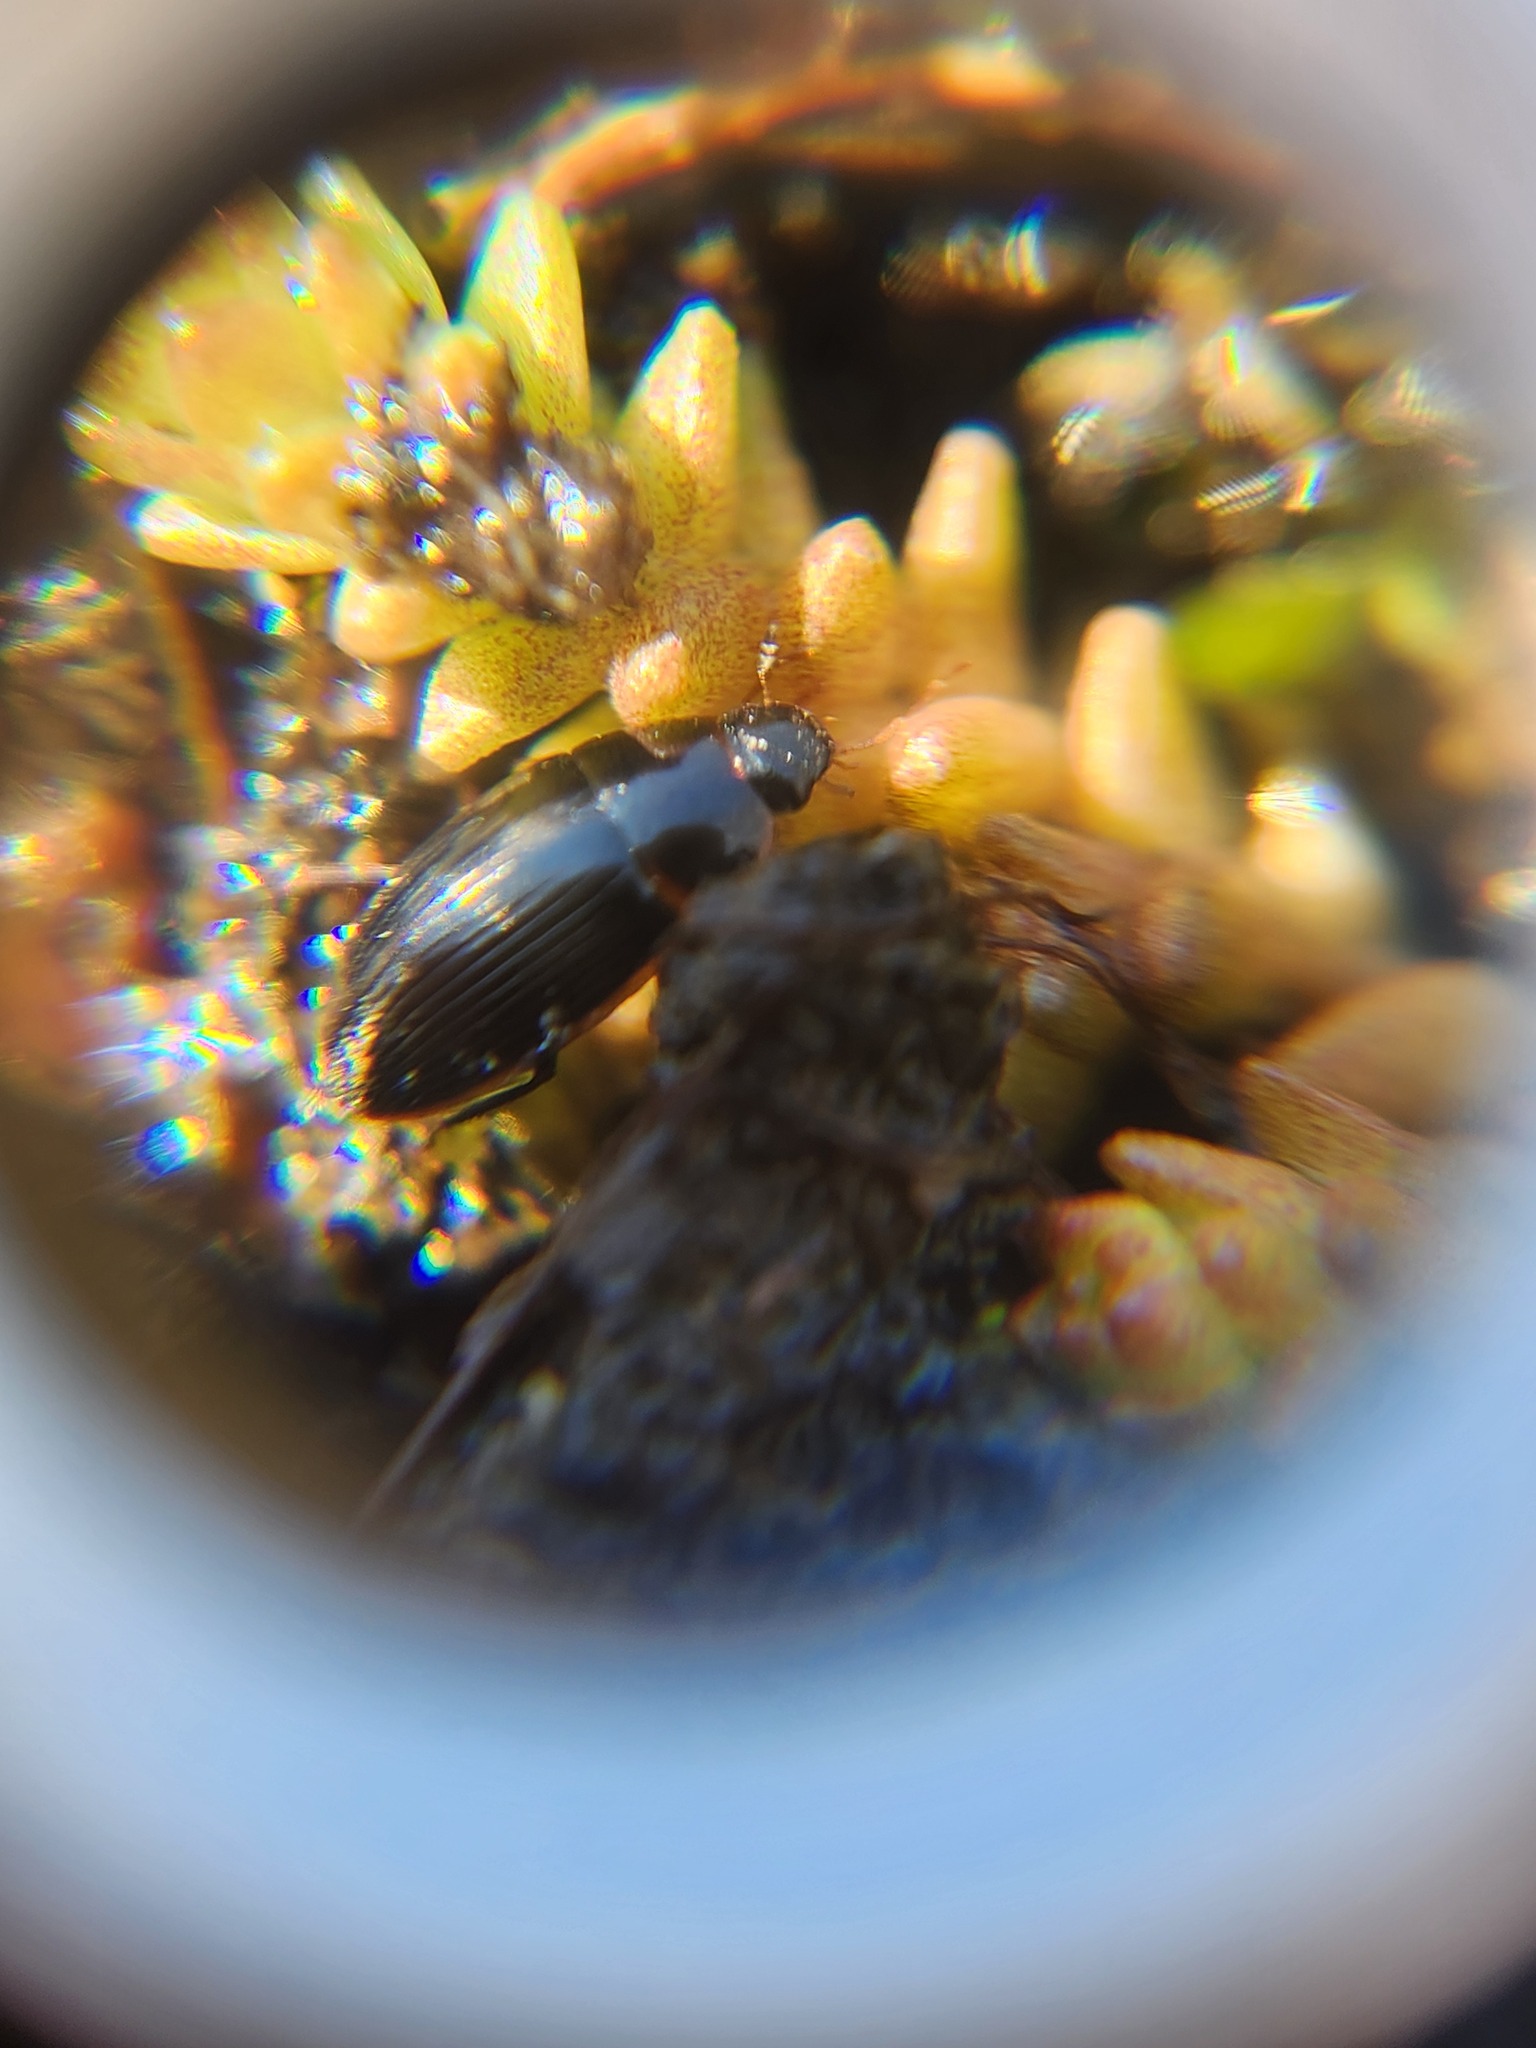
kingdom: Animalia
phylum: Arthropoda
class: Insecta
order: Coleoptera
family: Hydrophilidae
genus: Cymbiodyta
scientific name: Cymbiodyta bifida
